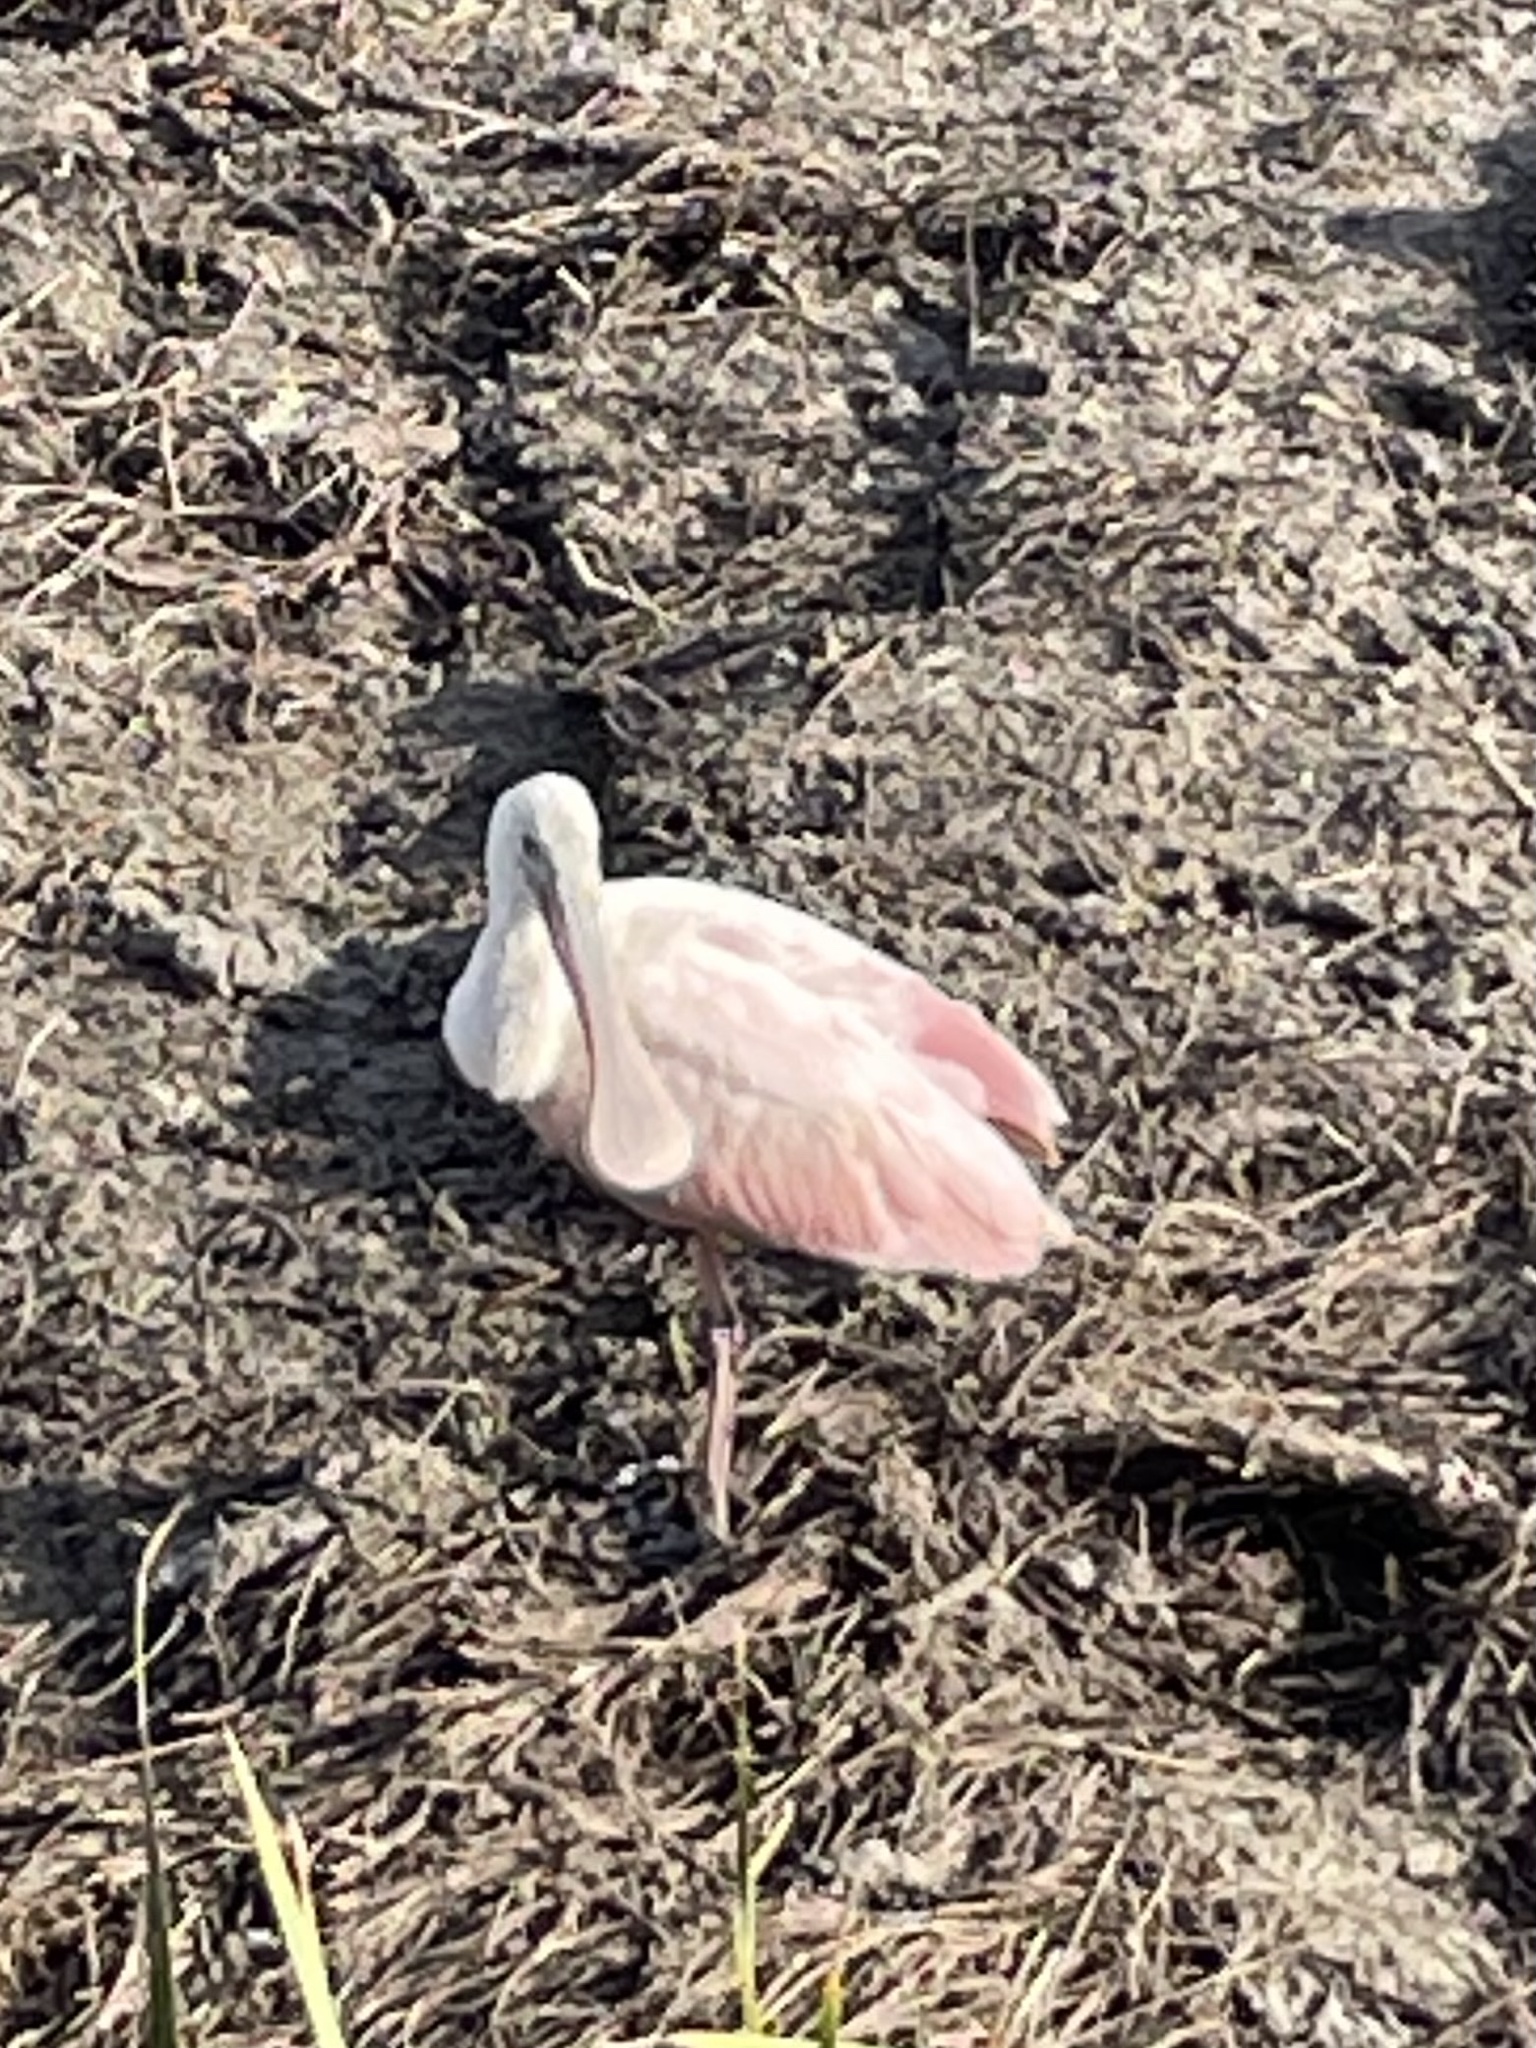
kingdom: Animalia
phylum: Chordata
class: Aves
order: Pelecaniformes
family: Threskiornithidae
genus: Platalea
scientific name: Platalea ajaja
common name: Roseate spoonbill
